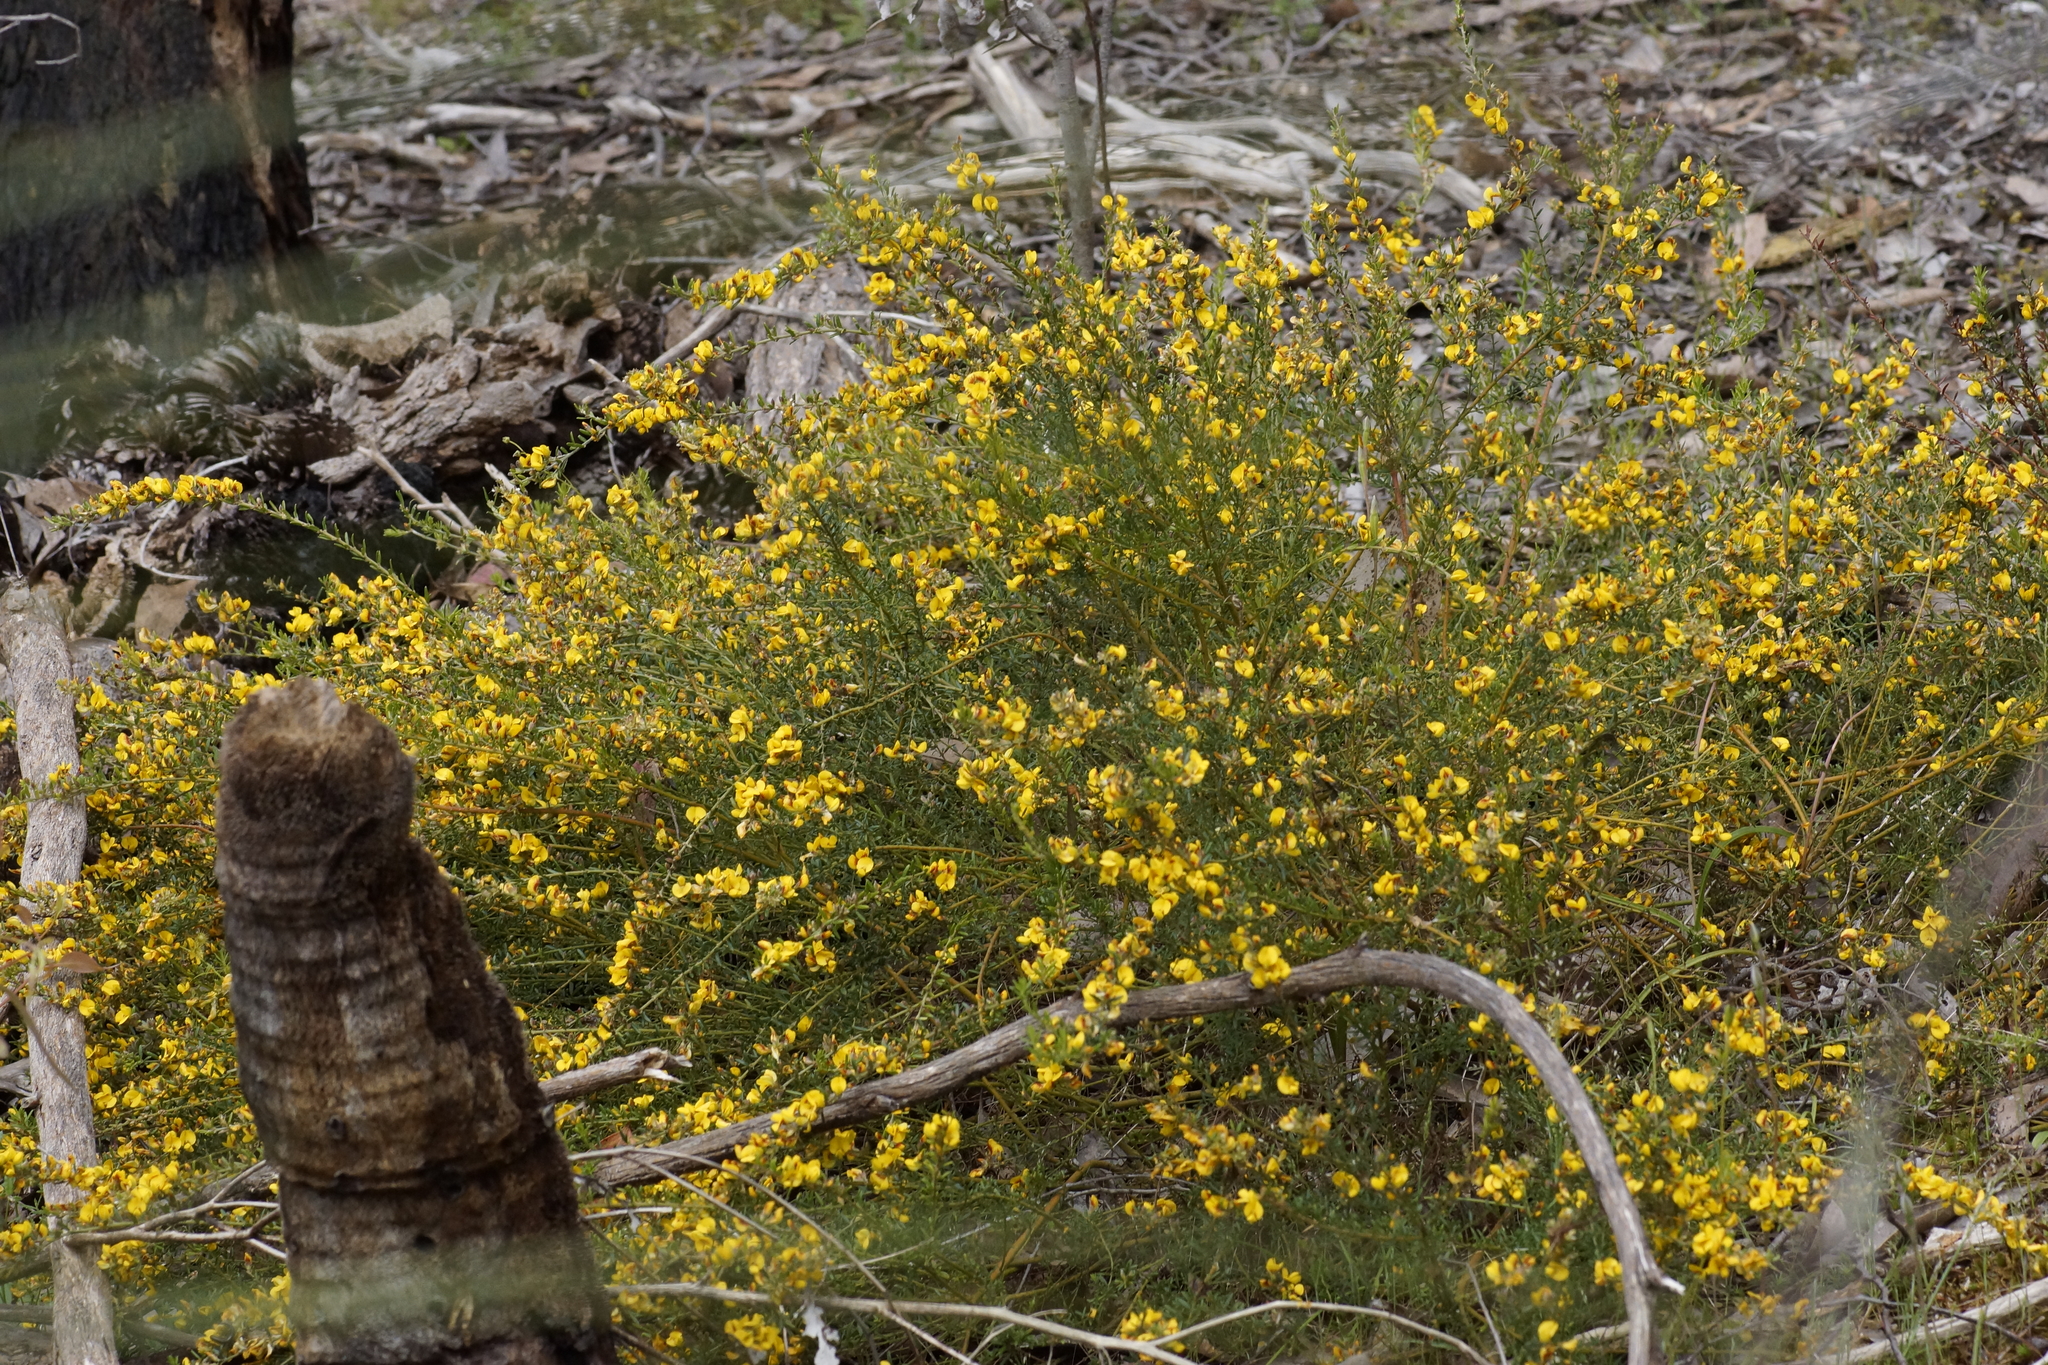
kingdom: Plantae
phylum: Tracheophyta
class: Magnoliopsida
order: Fabales
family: Fabaceae
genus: Aotus
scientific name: Aotus ericoides
